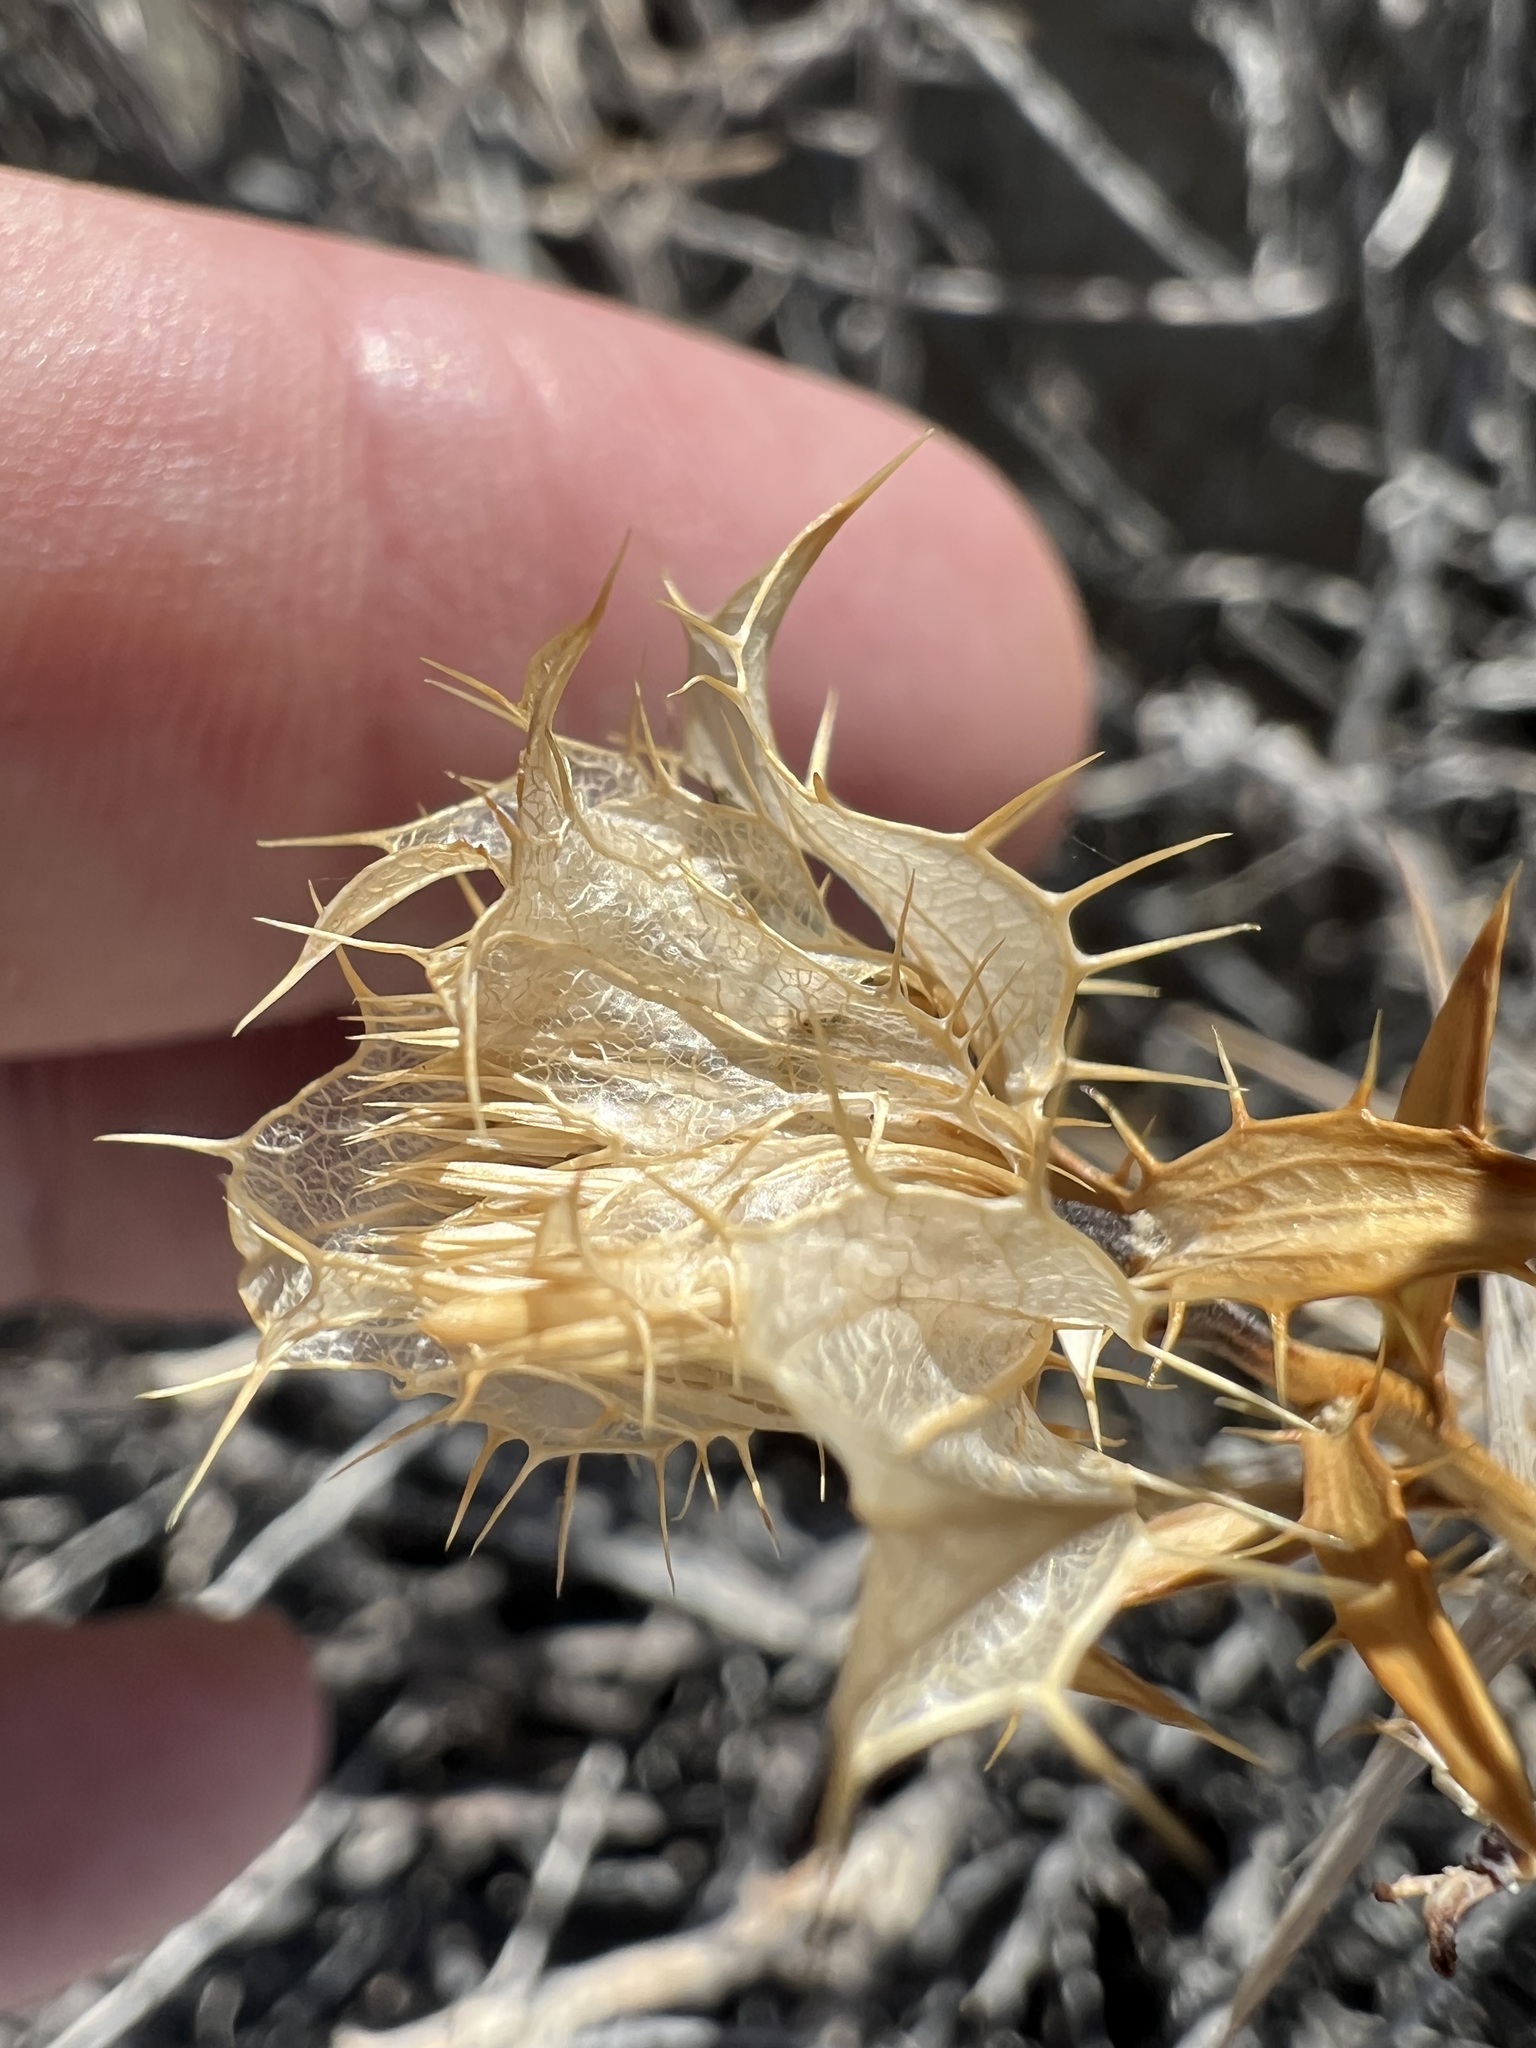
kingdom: Plantae
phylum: Tracheophyta
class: Magnoliopsida
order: Asterales
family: Asteraceae
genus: Hecastocleis
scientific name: Hecastocleis shockleyi
